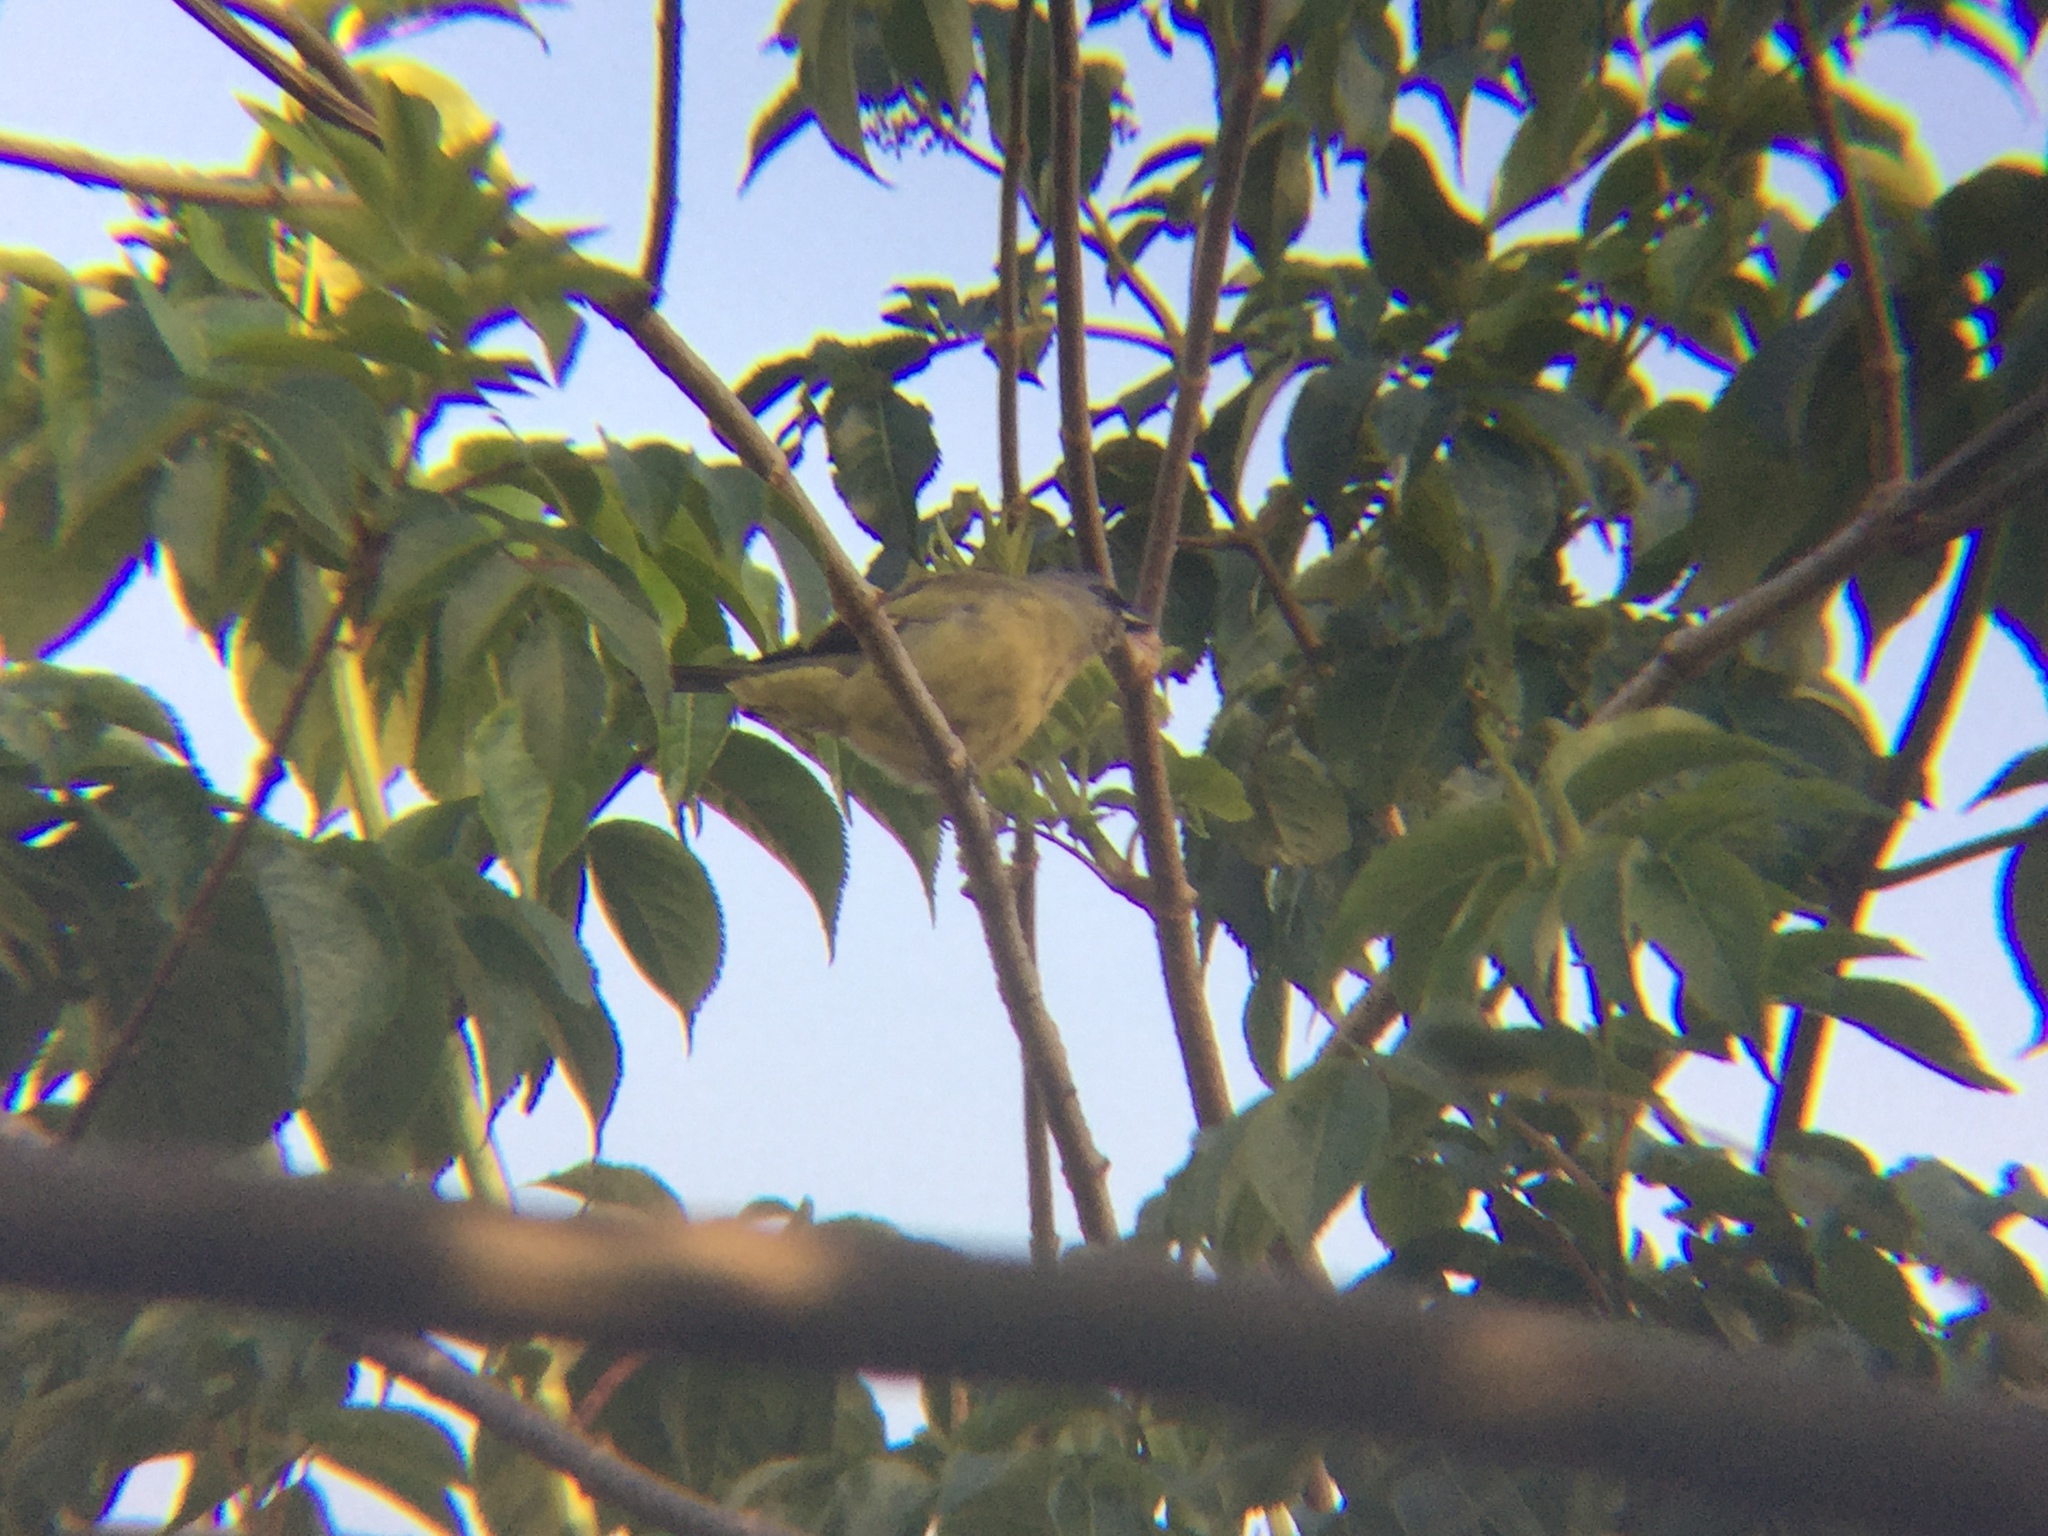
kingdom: Animalia
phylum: Chordata
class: Aves
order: Passeriformes
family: Thraupidae
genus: Thraupis
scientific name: Thraupis abbas
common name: Yellow-winged tanager
